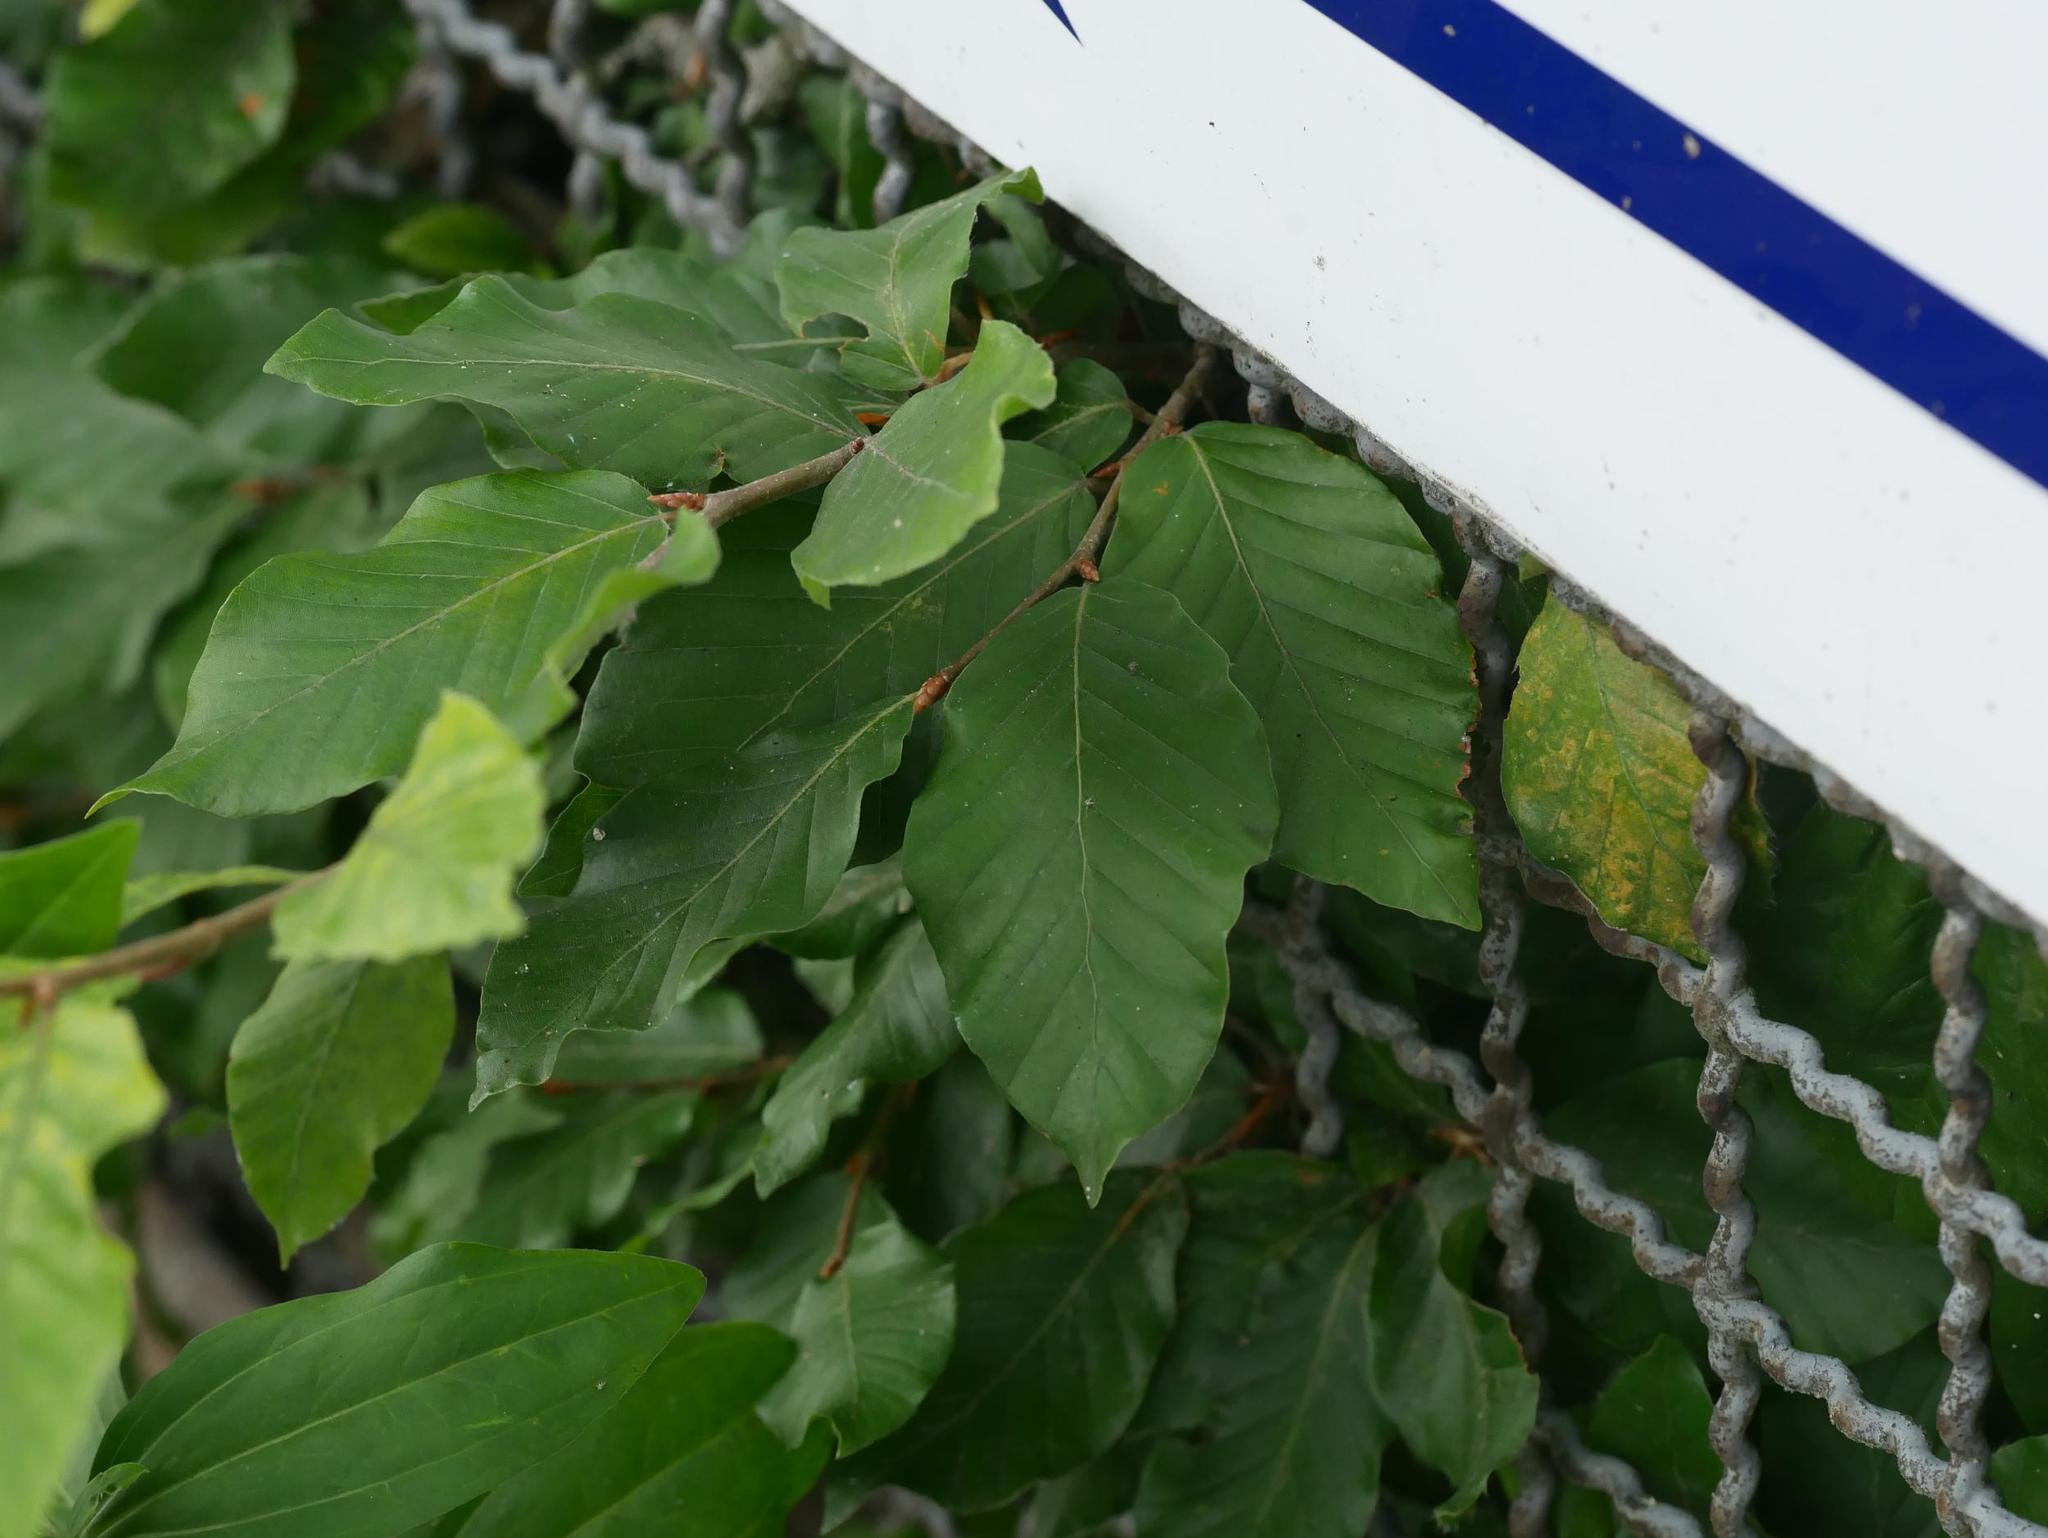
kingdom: Plantae
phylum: Tracheophyta
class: Magnoliopsida
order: Fagales
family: Fagaceae
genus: Fagus
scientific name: Fagus sylvatica
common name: Beech
